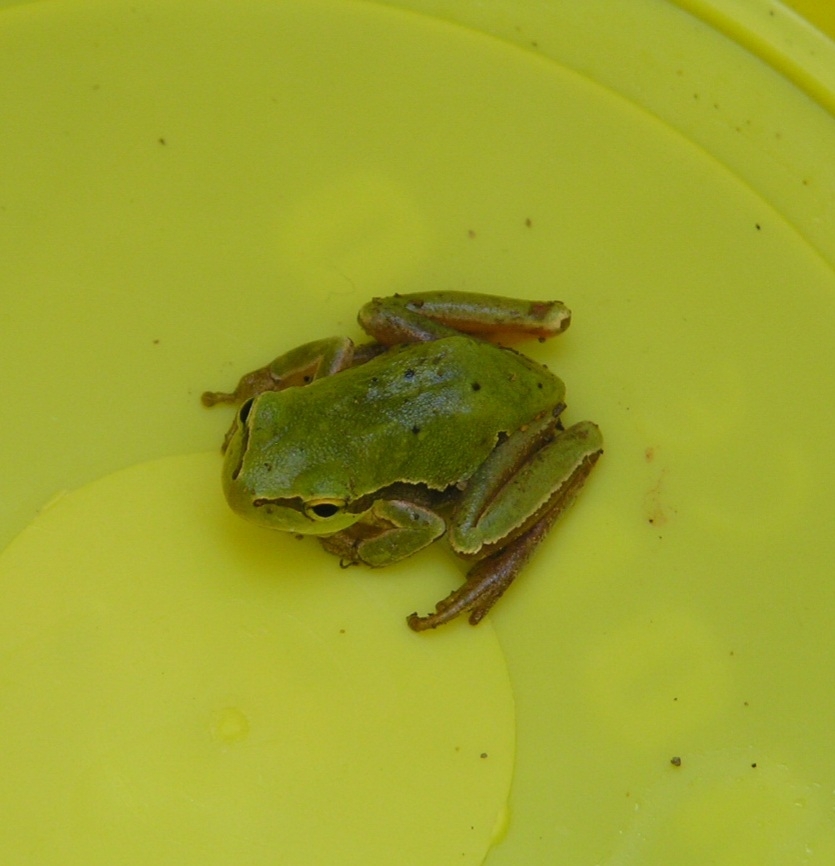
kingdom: Animalia
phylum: Chordata
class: Amphibia
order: Anura
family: Hylidae
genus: Hyla
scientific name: Hyla orientalis
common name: Caucasian treefrog
